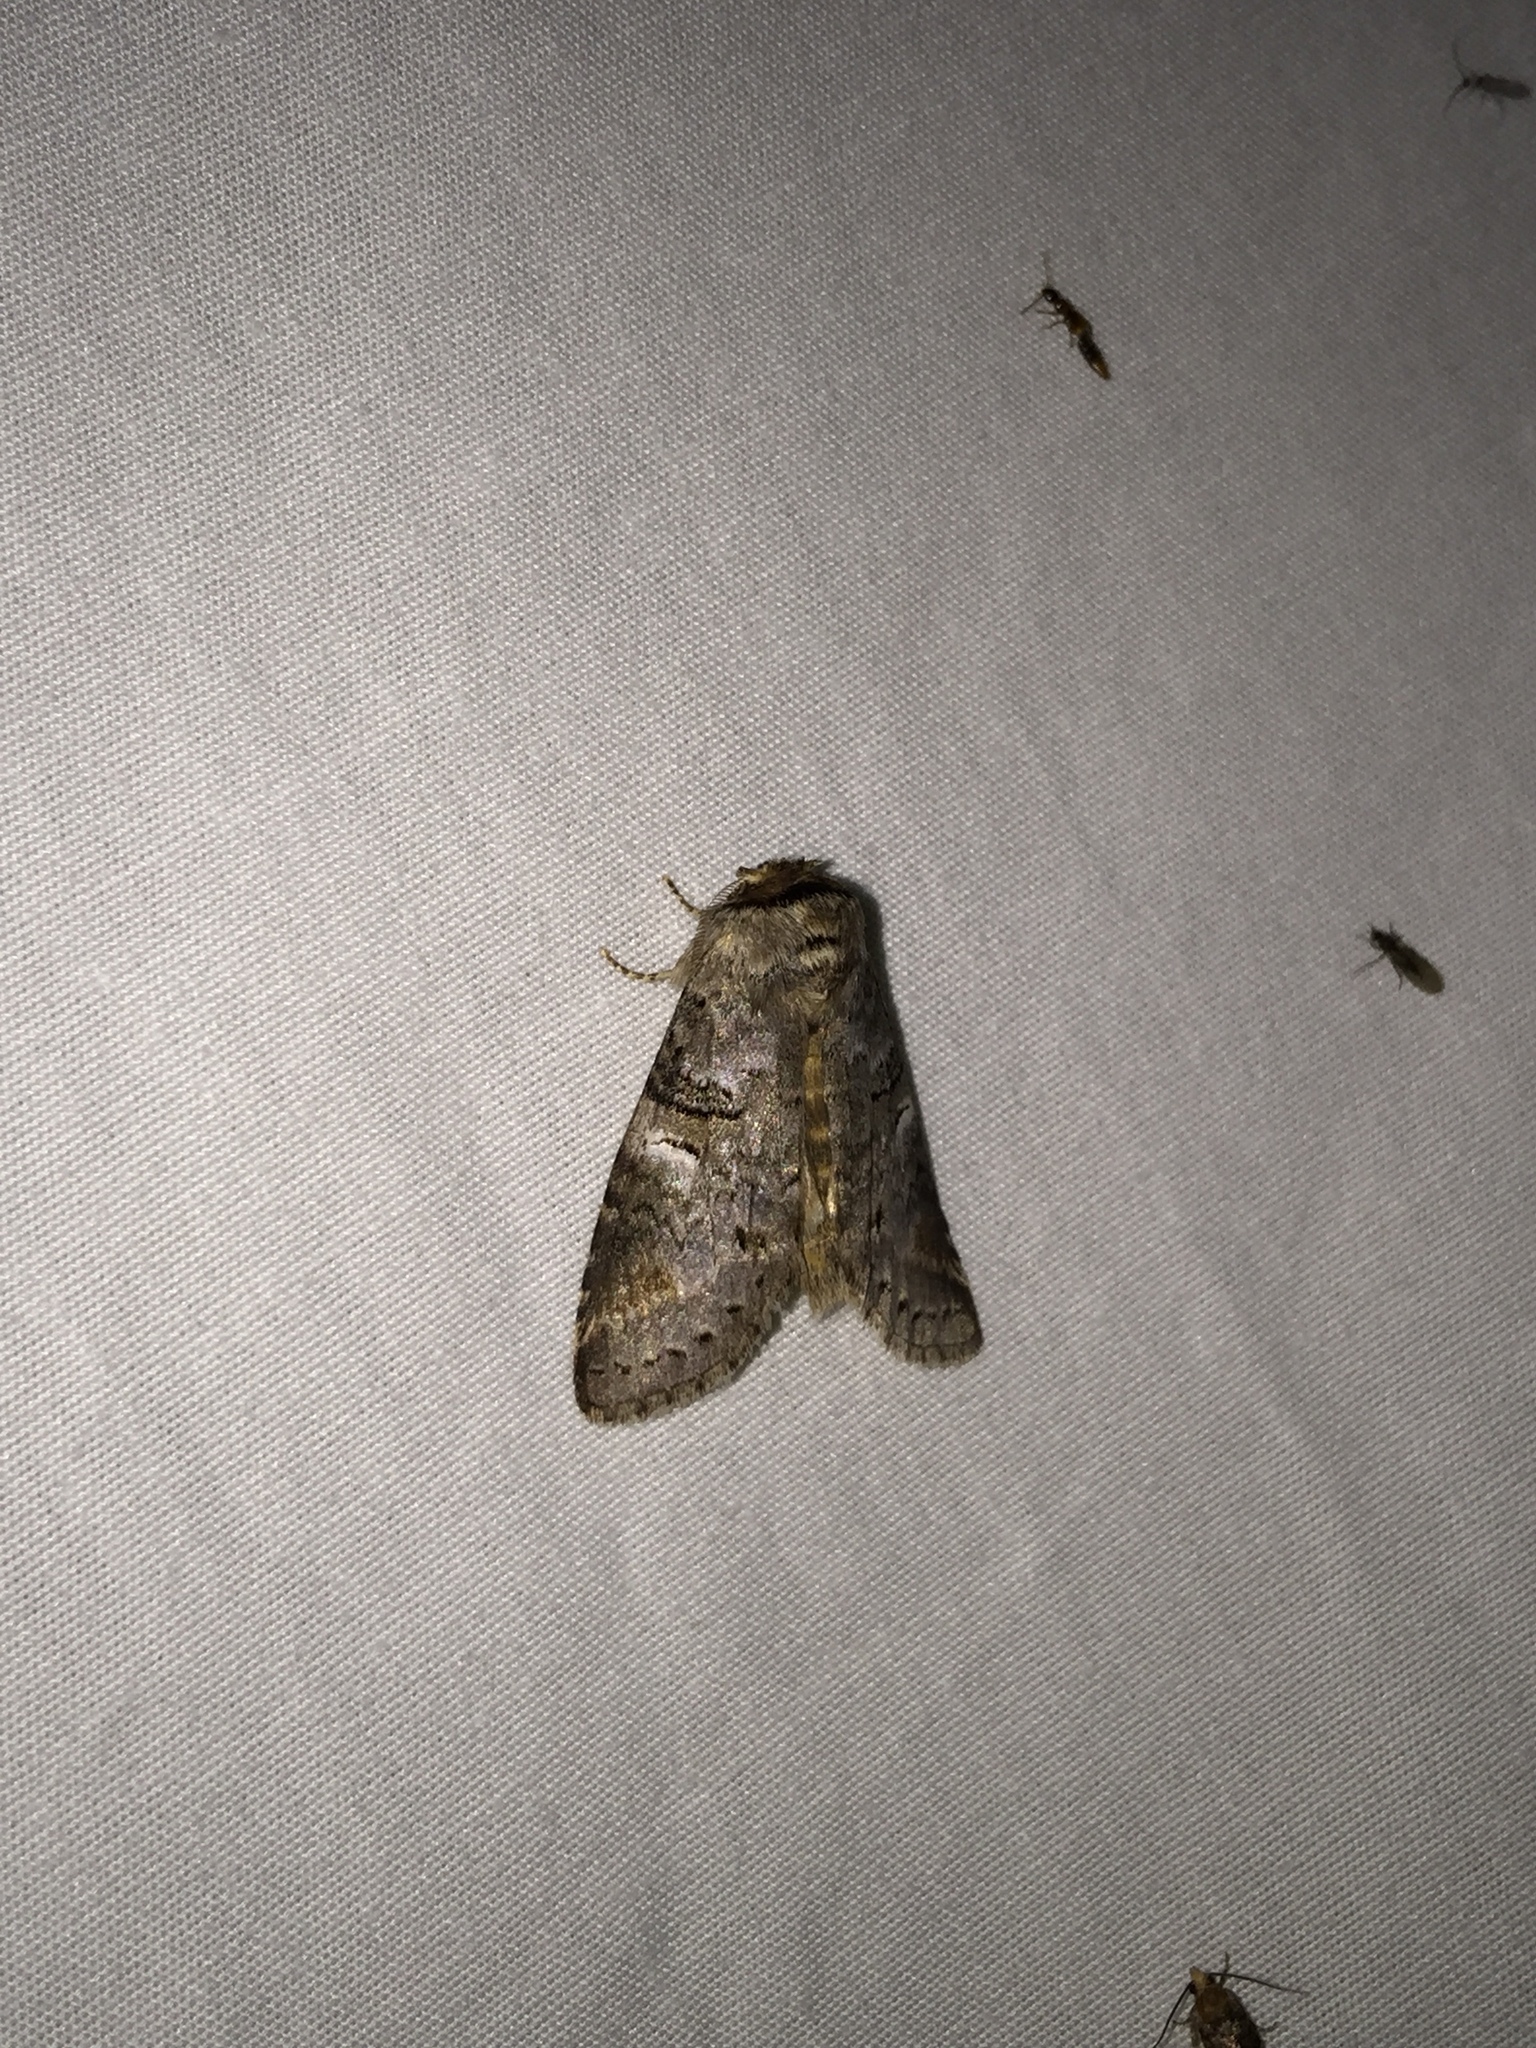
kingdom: Animalia
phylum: Arthropoda
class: Insecta
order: Lepidoptera
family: Notodontidae
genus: Ellida
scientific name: Ellida caniplaga
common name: Linden prominent
